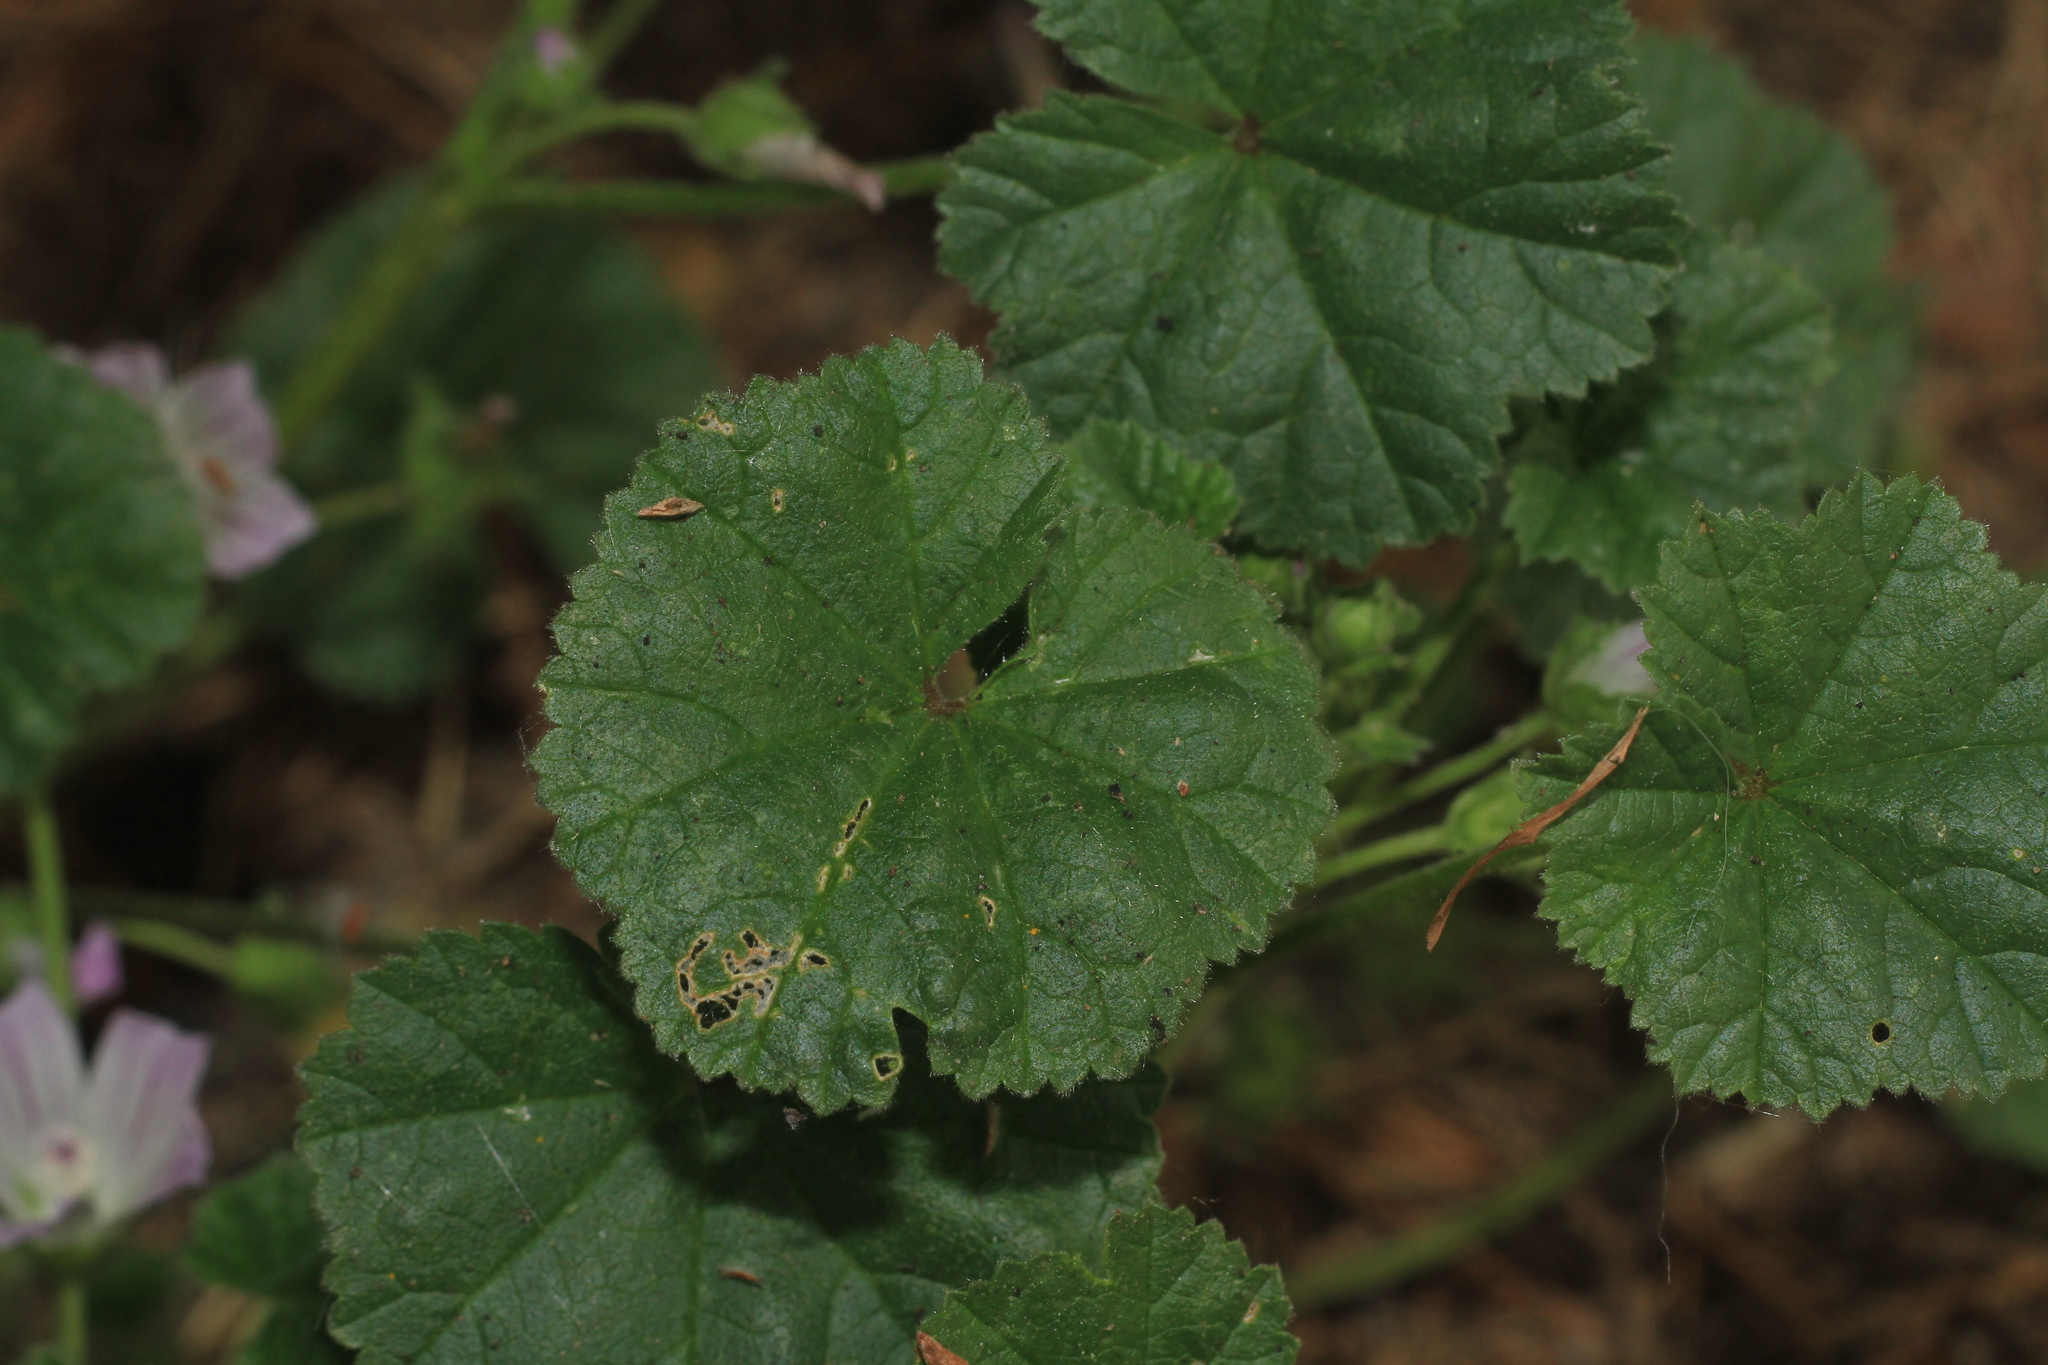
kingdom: Plantae
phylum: Tracheophyta
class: Magnoliopsida
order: Malvales
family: Malvaceae
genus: Malva
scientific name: Malva neglecta
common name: Common mallow
